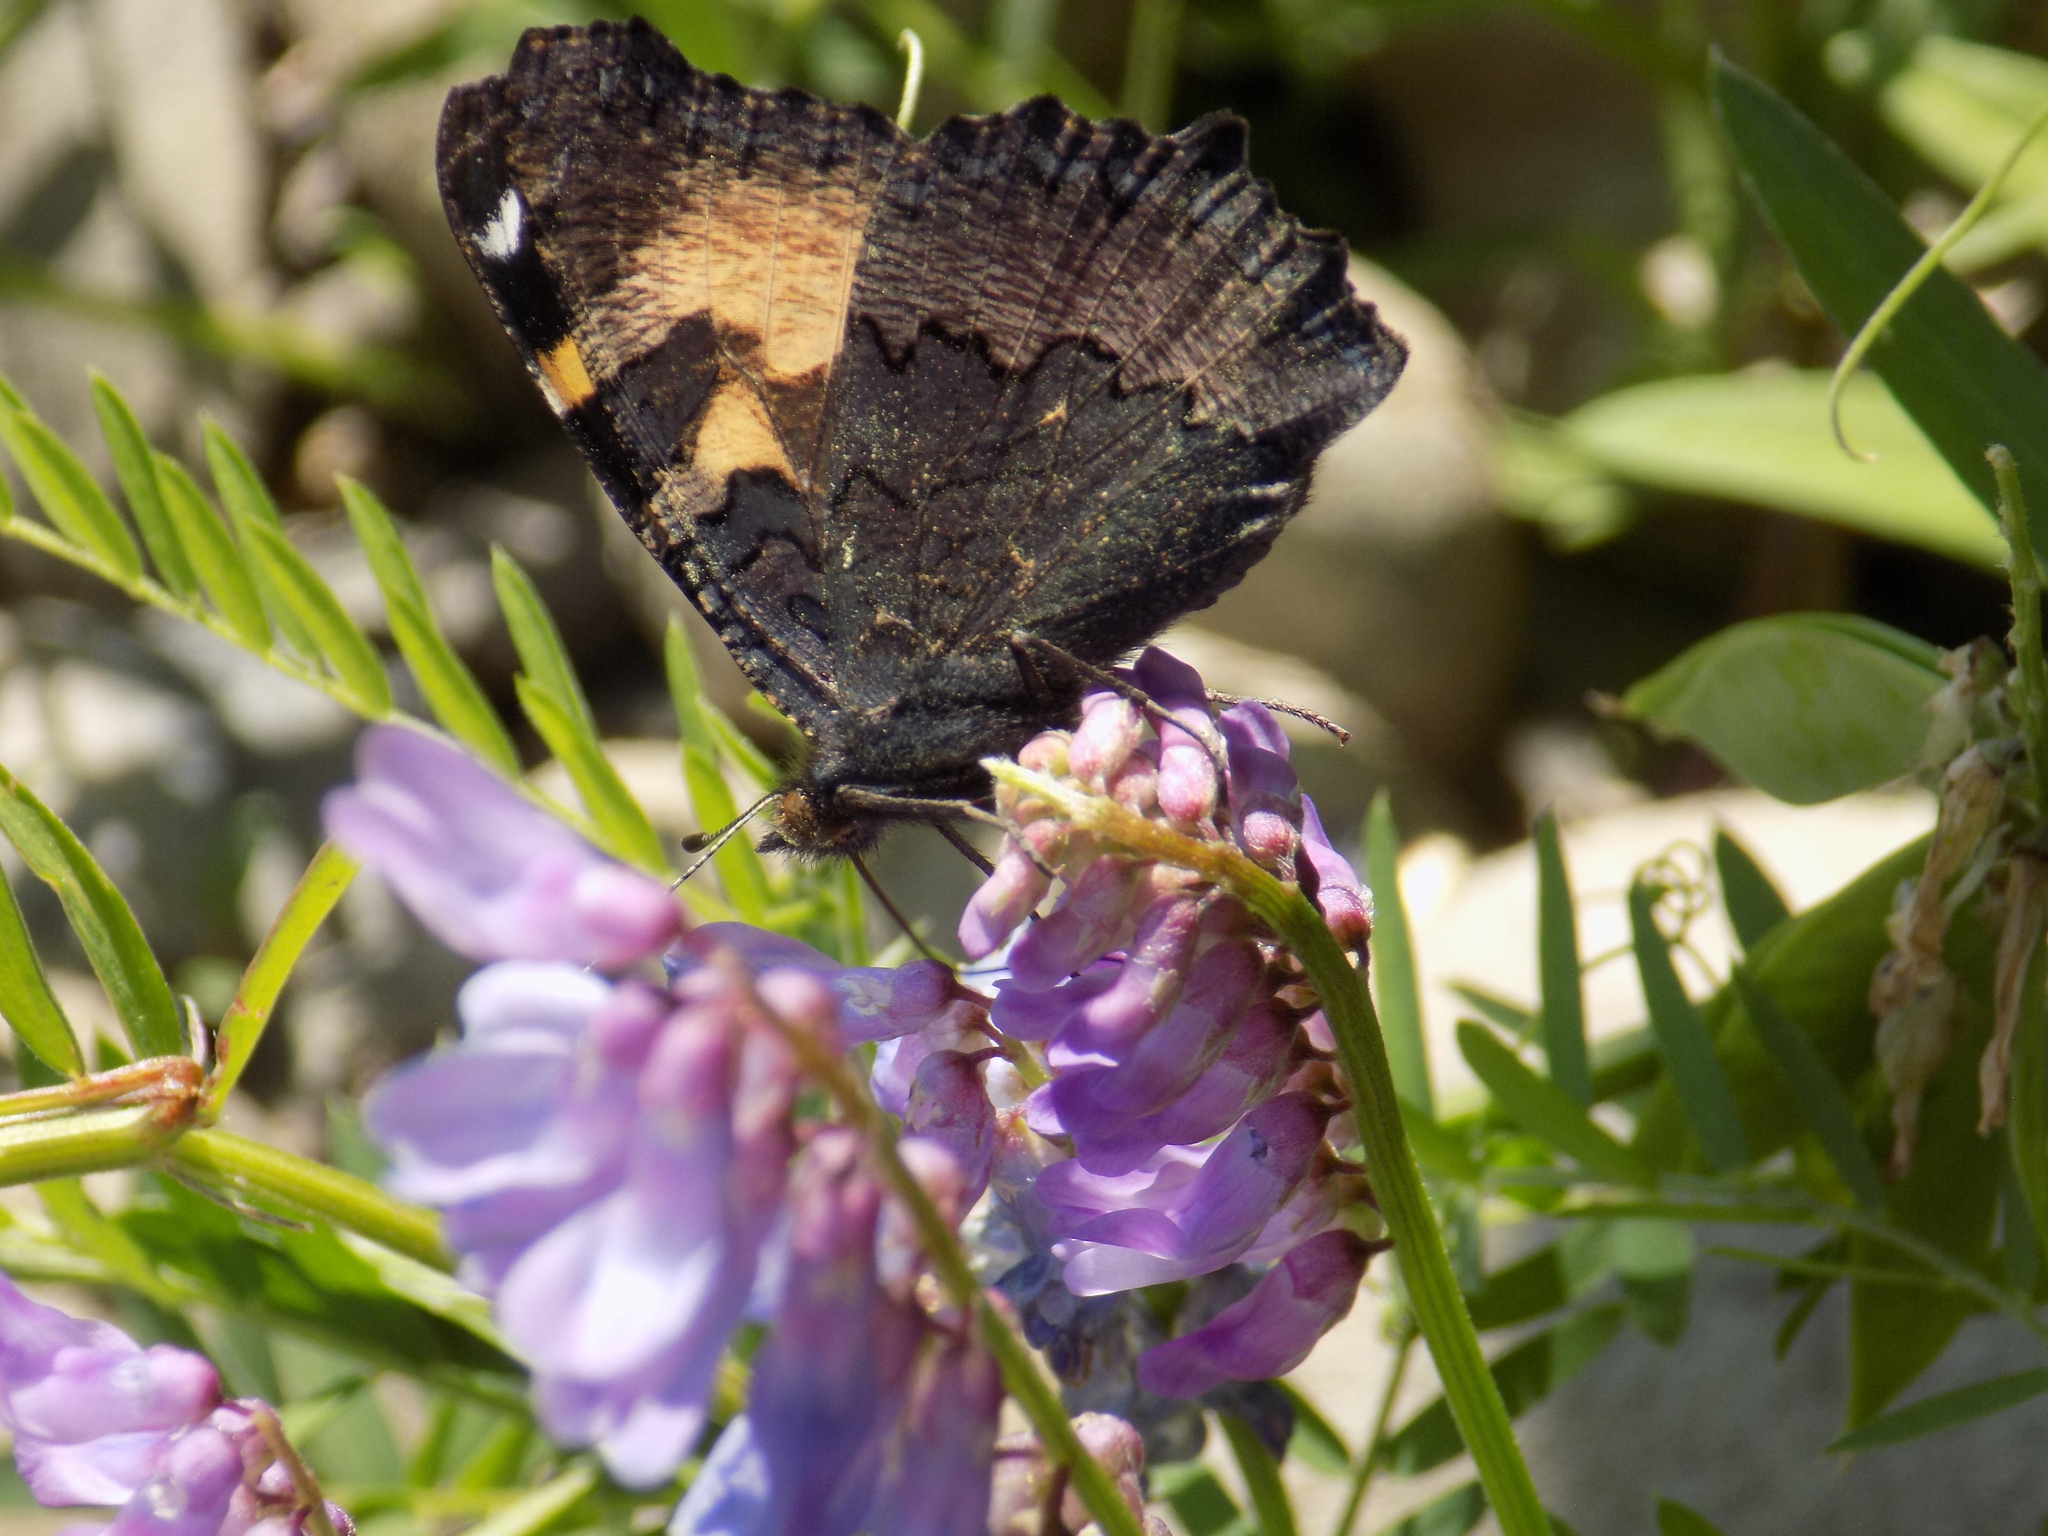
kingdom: Animalia
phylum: Arthropoda
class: Insecta
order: Lepidoptera
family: Nymphalidae
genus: Aglais
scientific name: Aglais urticae
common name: Small tortoiseshell
